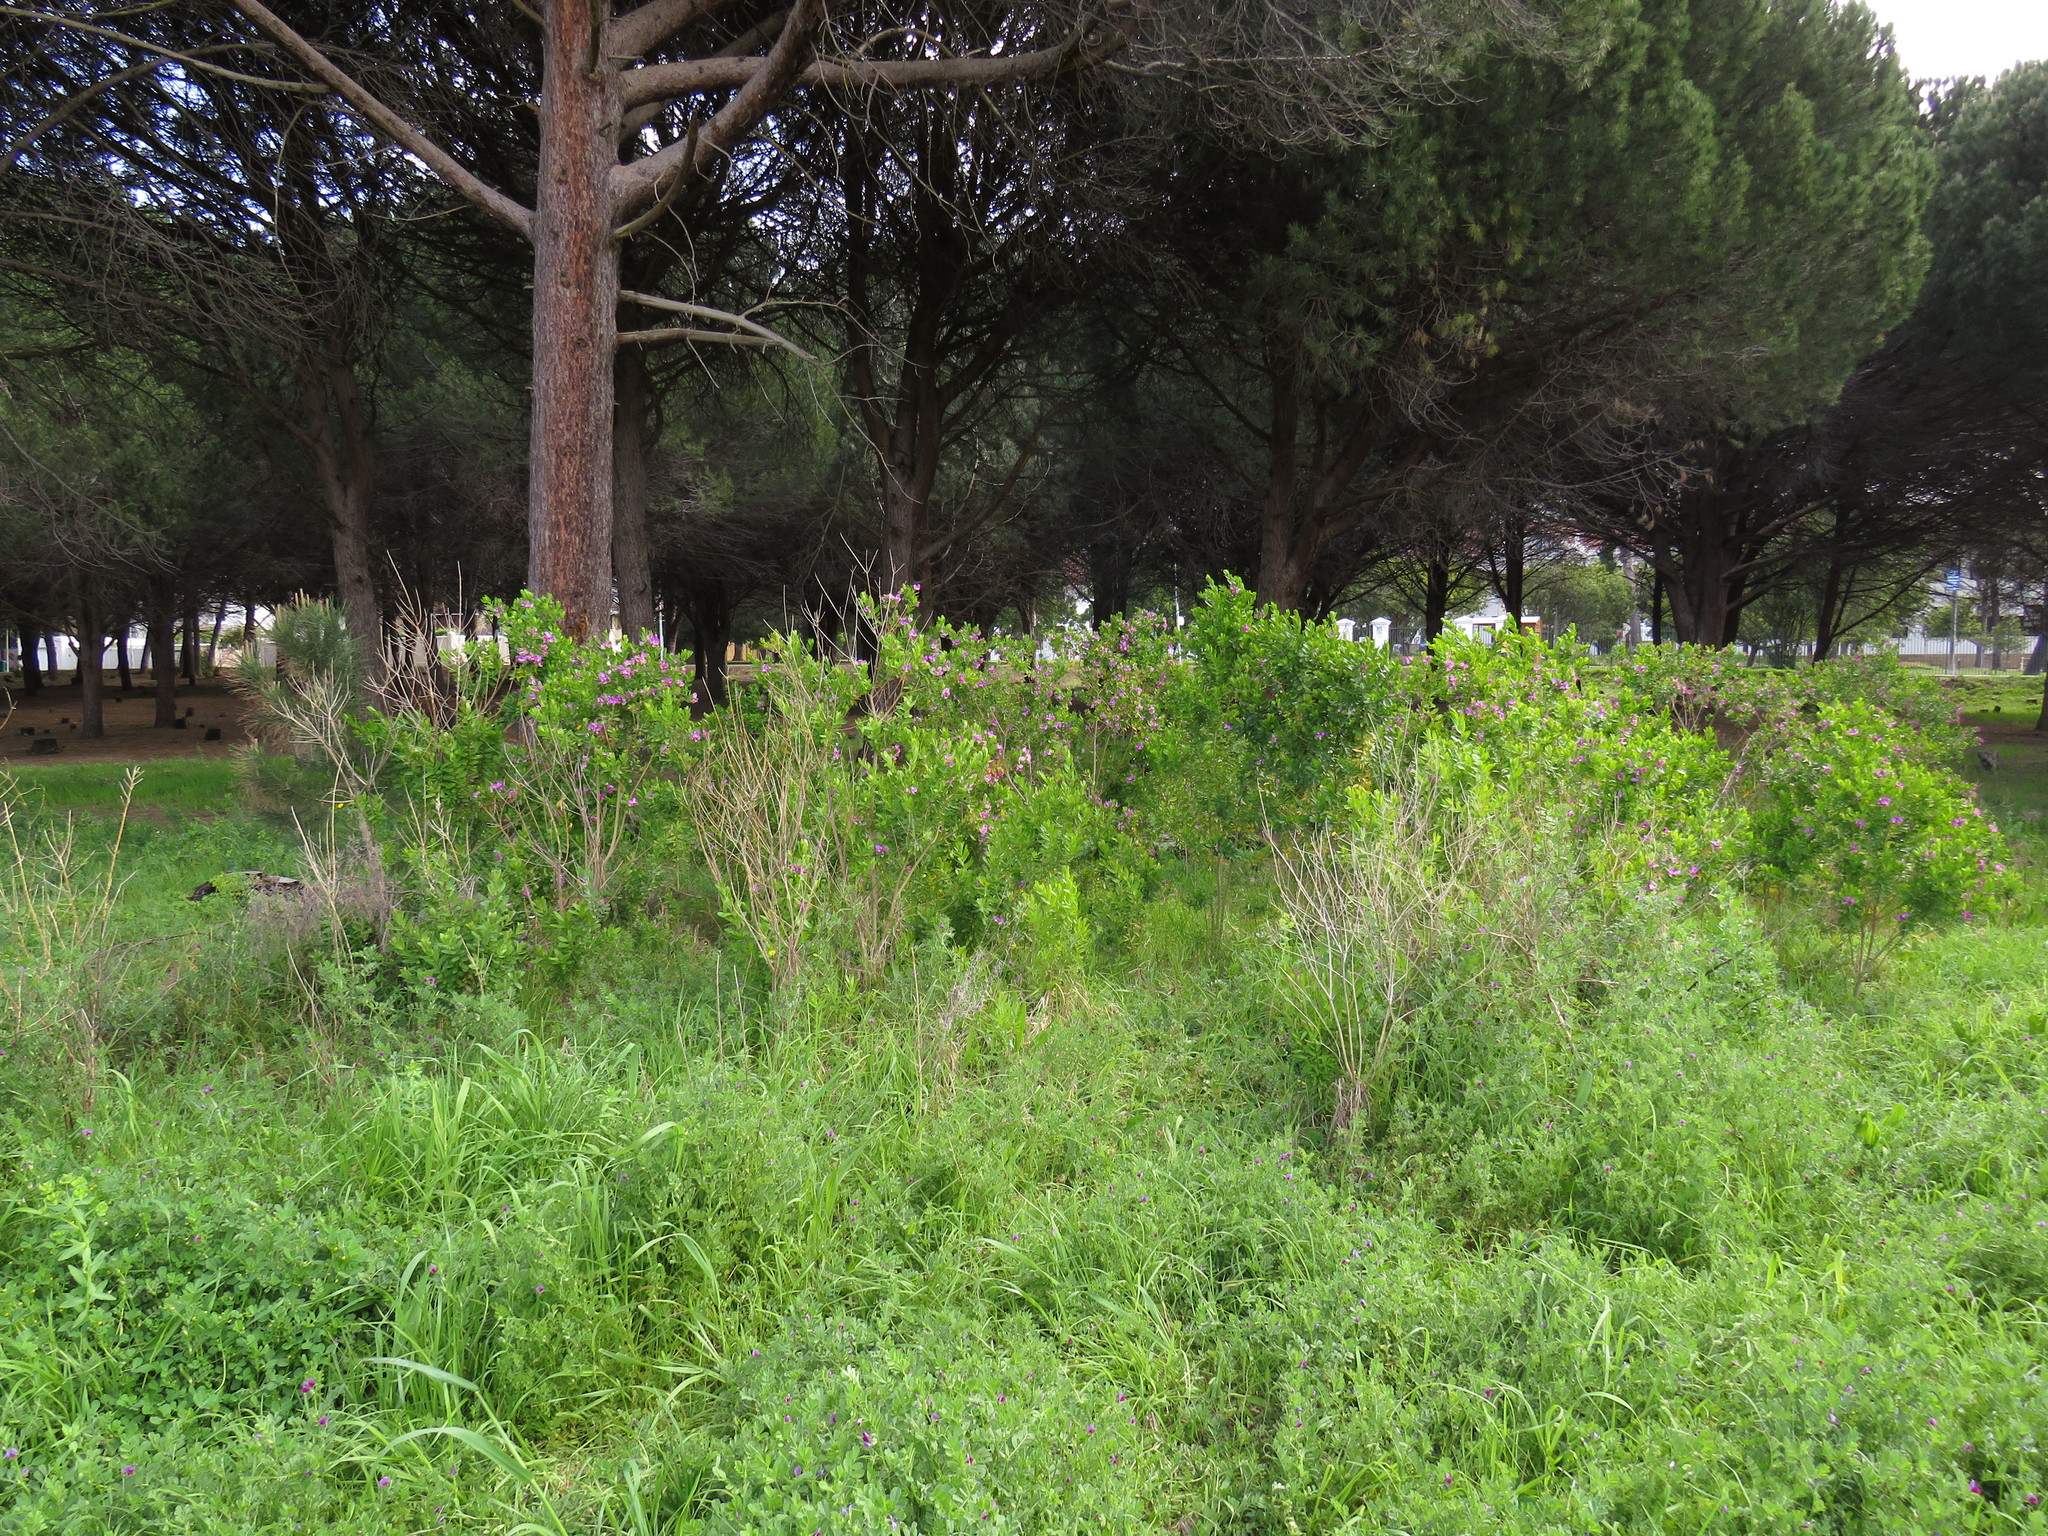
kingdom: Plantae
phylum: Tracheophyta
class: Magnoliopsida
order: Fabales
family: Polygalaceae
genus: Polygala
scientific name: Polygala myrtifolia
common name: Myrtle-leaf milkwort
